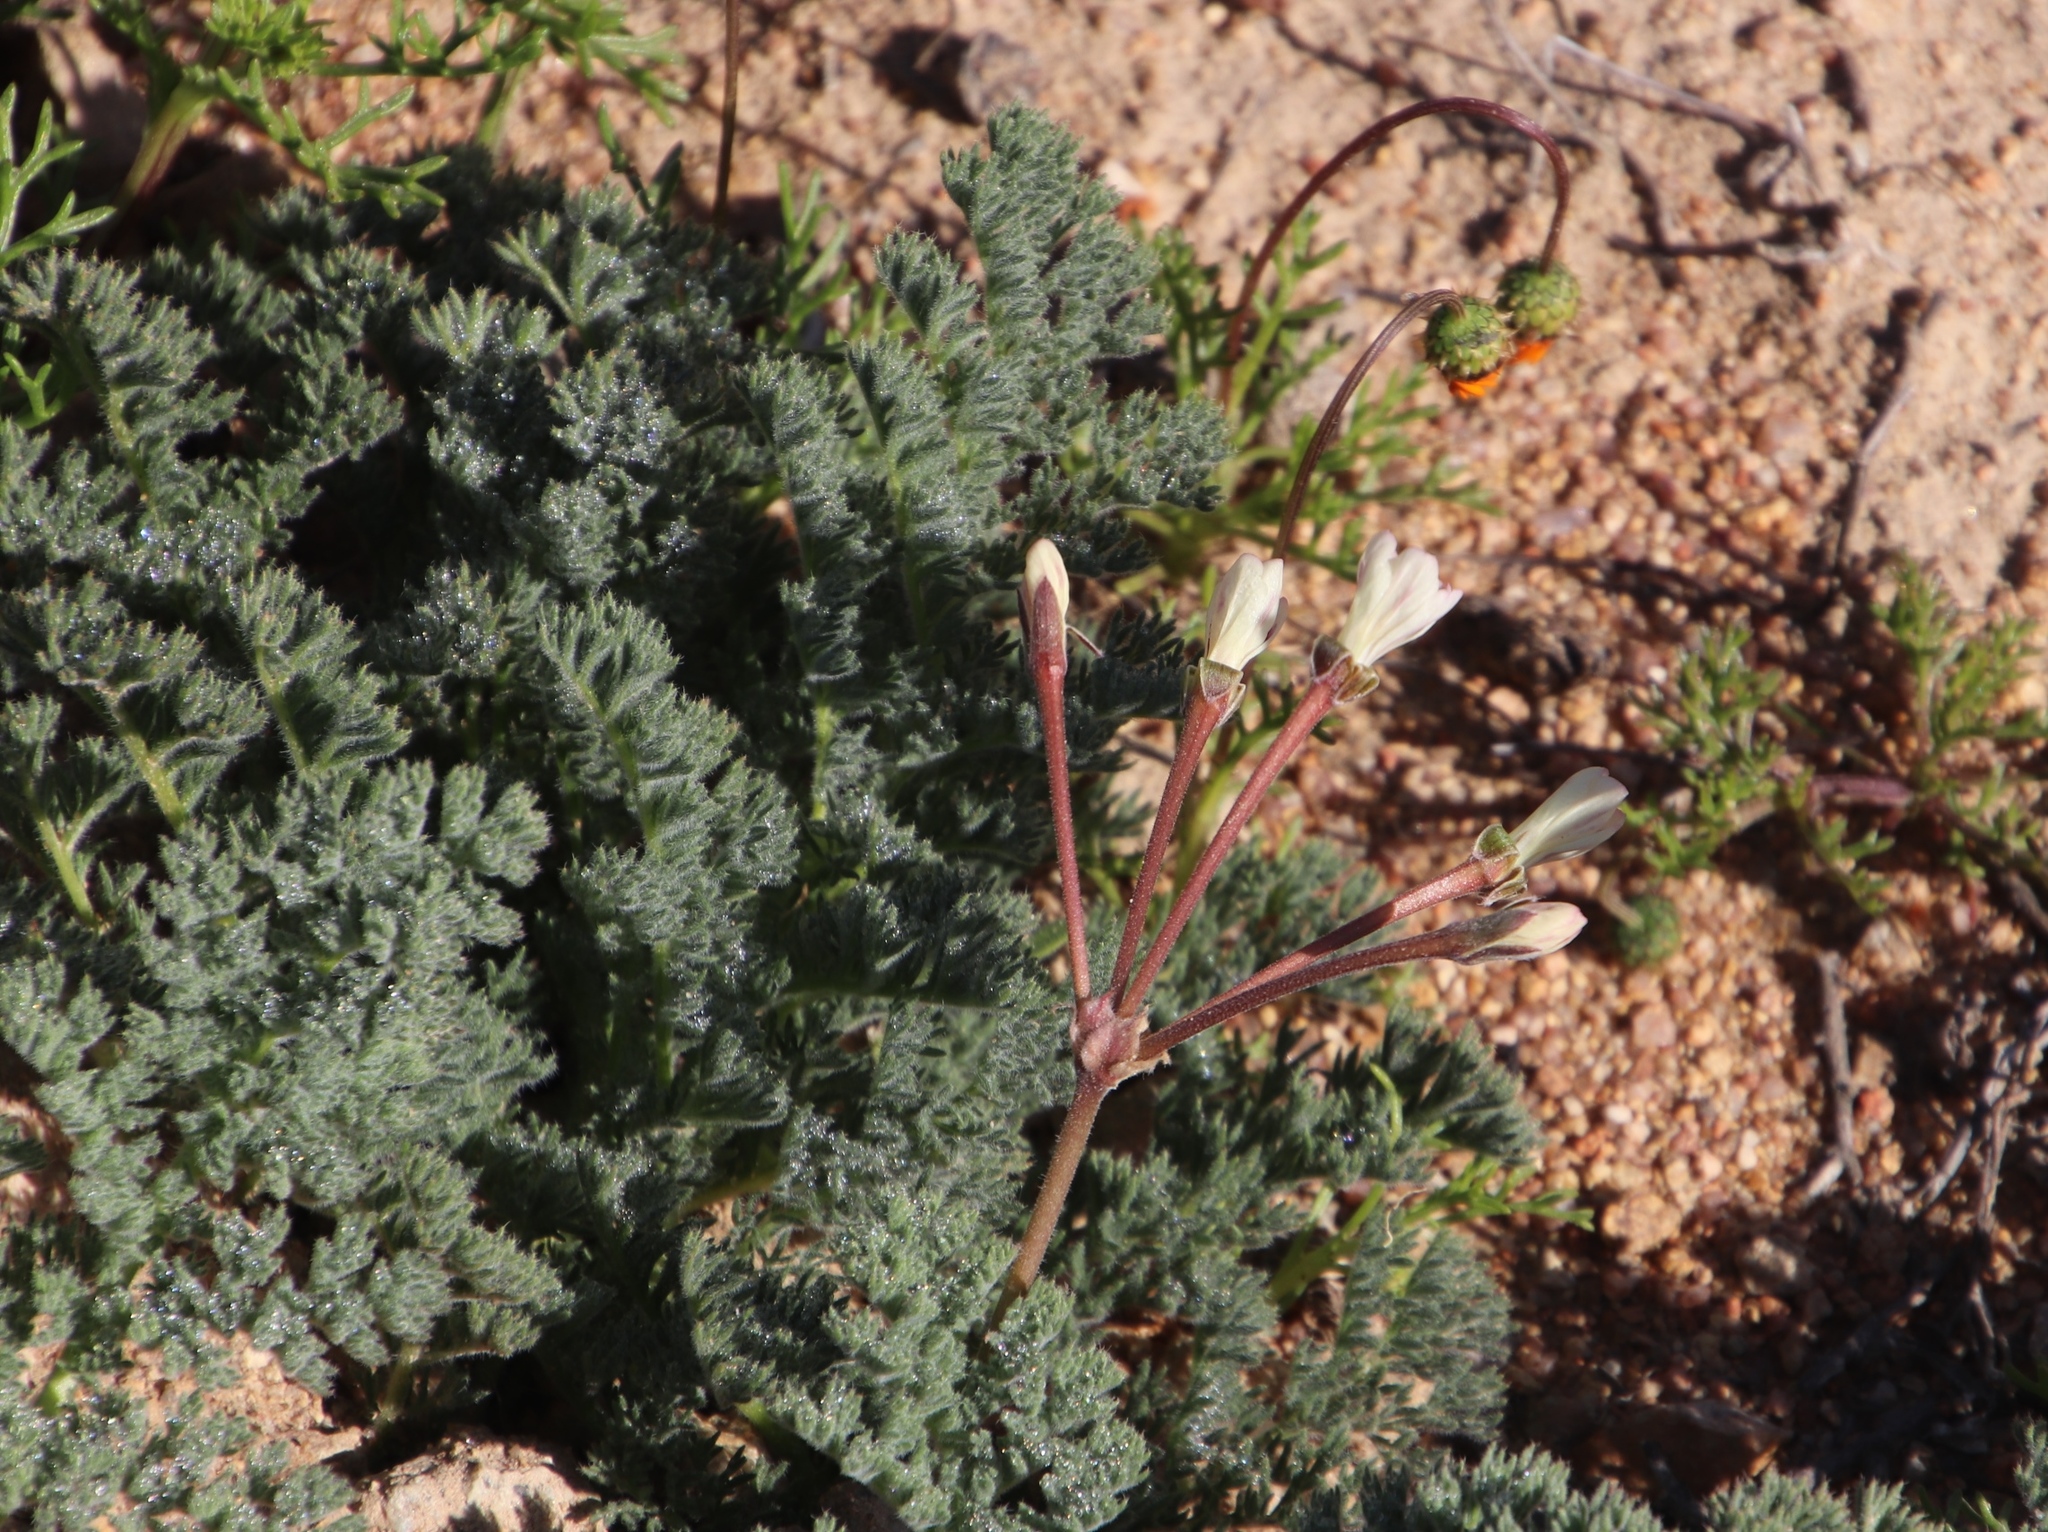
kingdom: Plantae
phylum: Tracheophyta
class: Magnoliopsida
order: Geraniales
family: Geraniaceae
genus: Pelargonium
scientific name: Pelargonium triste
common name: Night-scent pelargonium
